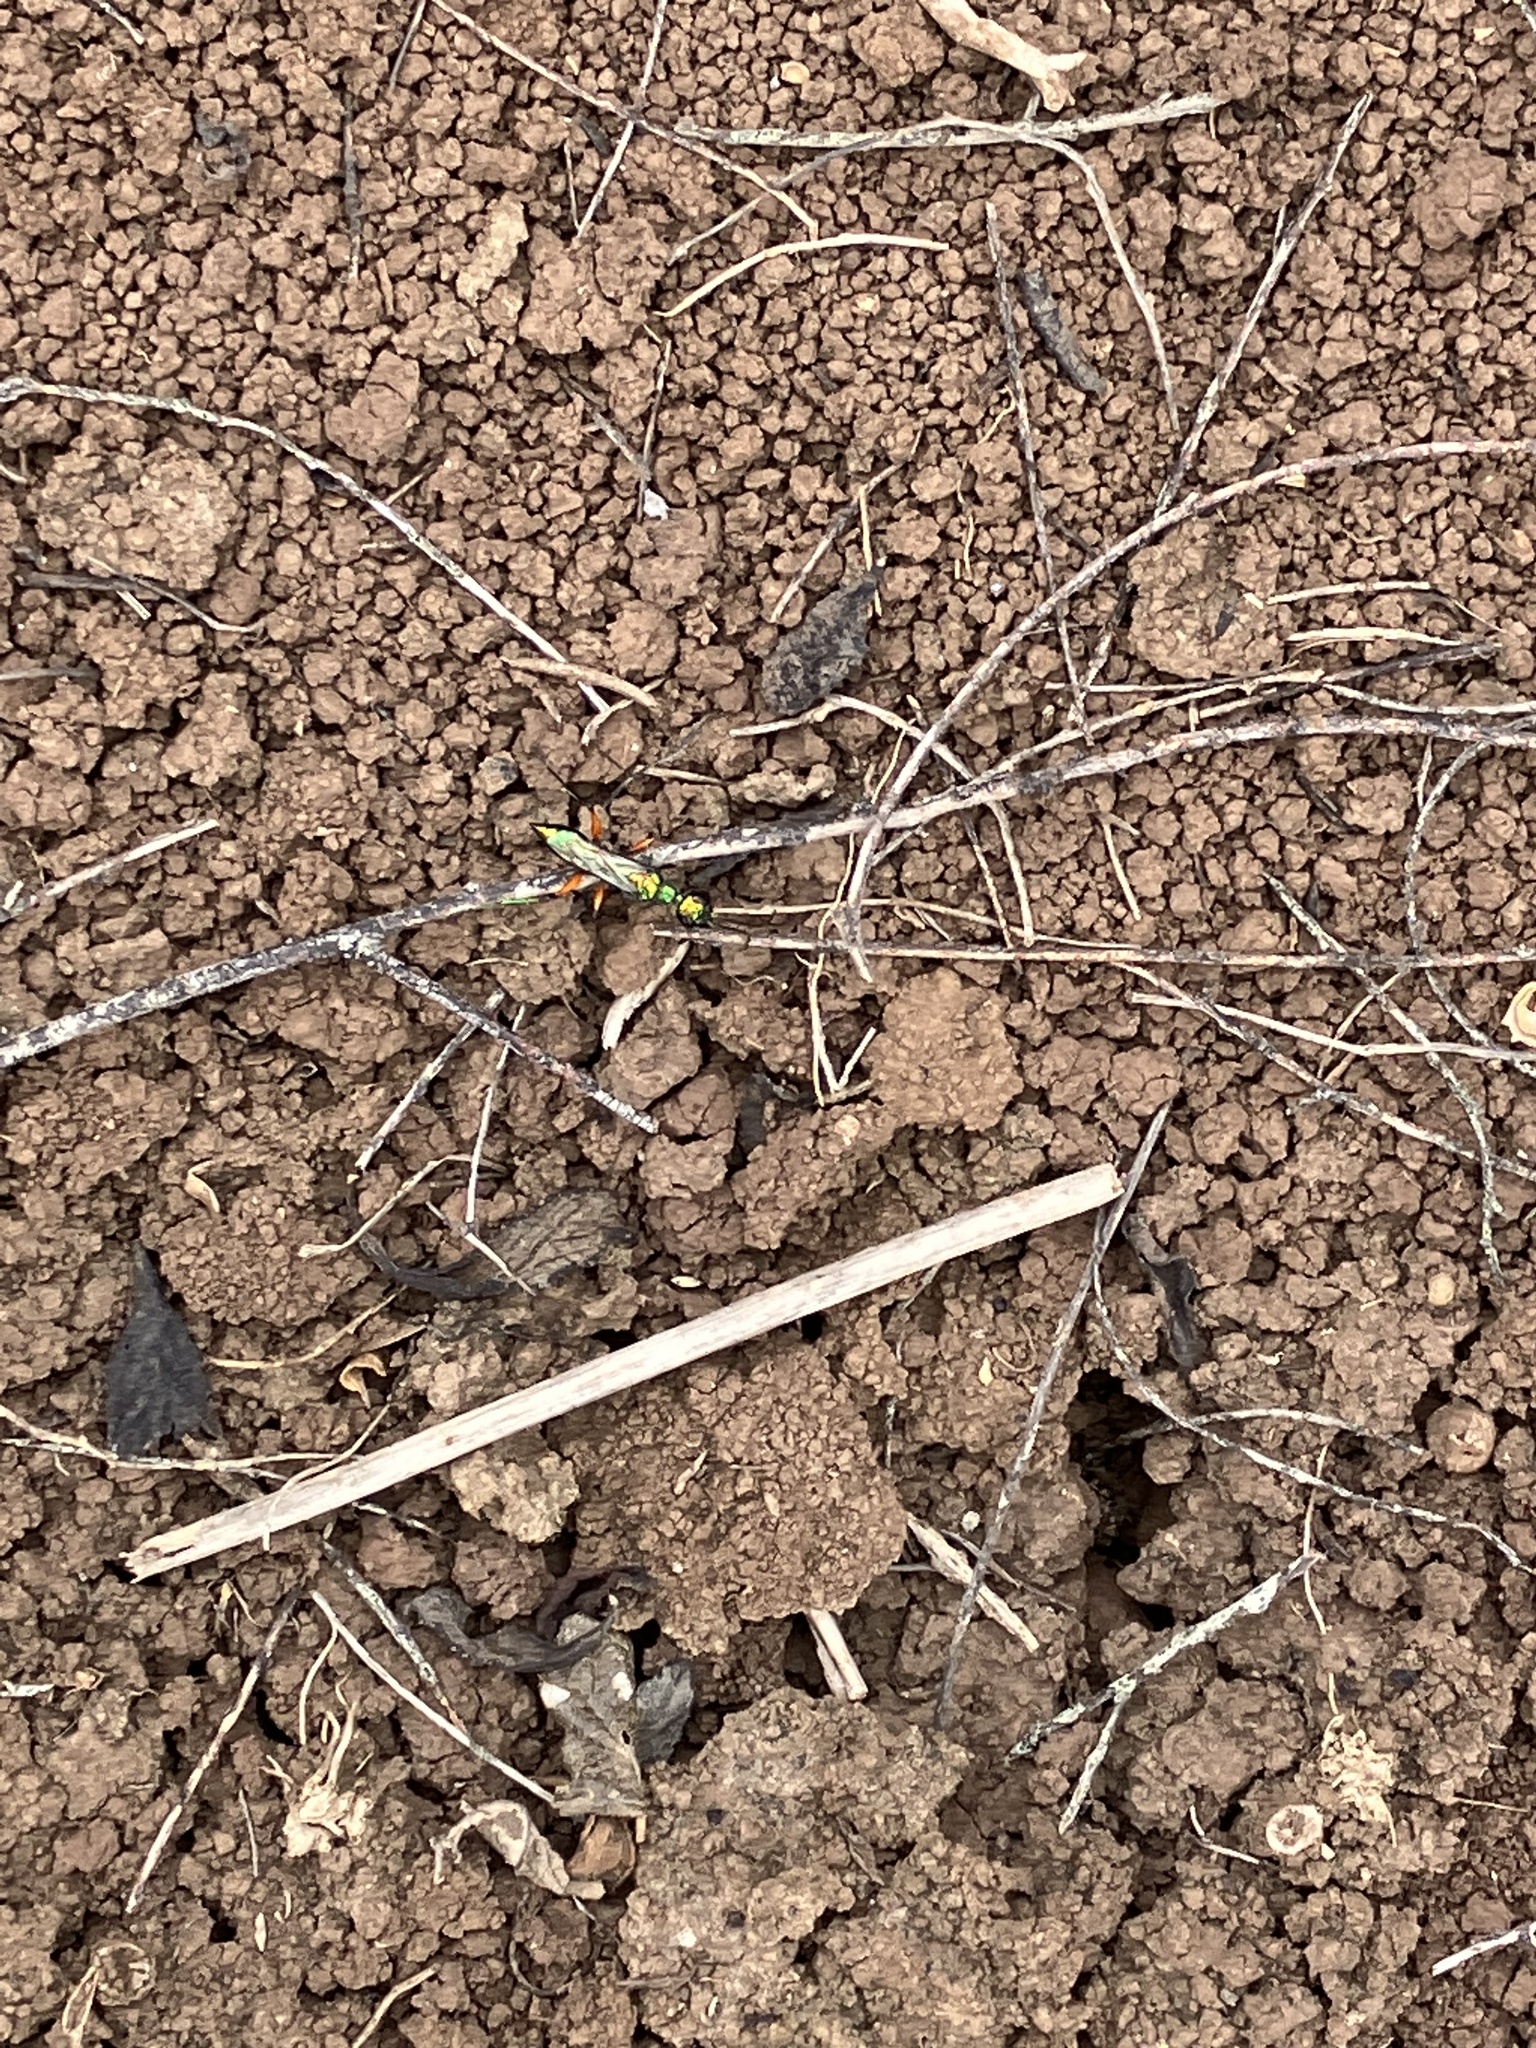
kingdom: Animalia
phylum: Arthropoda
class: Insecta
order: Hymenoptera
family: Ampulicidae
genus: Ampulex
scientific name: Ampulex compressa
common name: Emerald cockroach wasp
